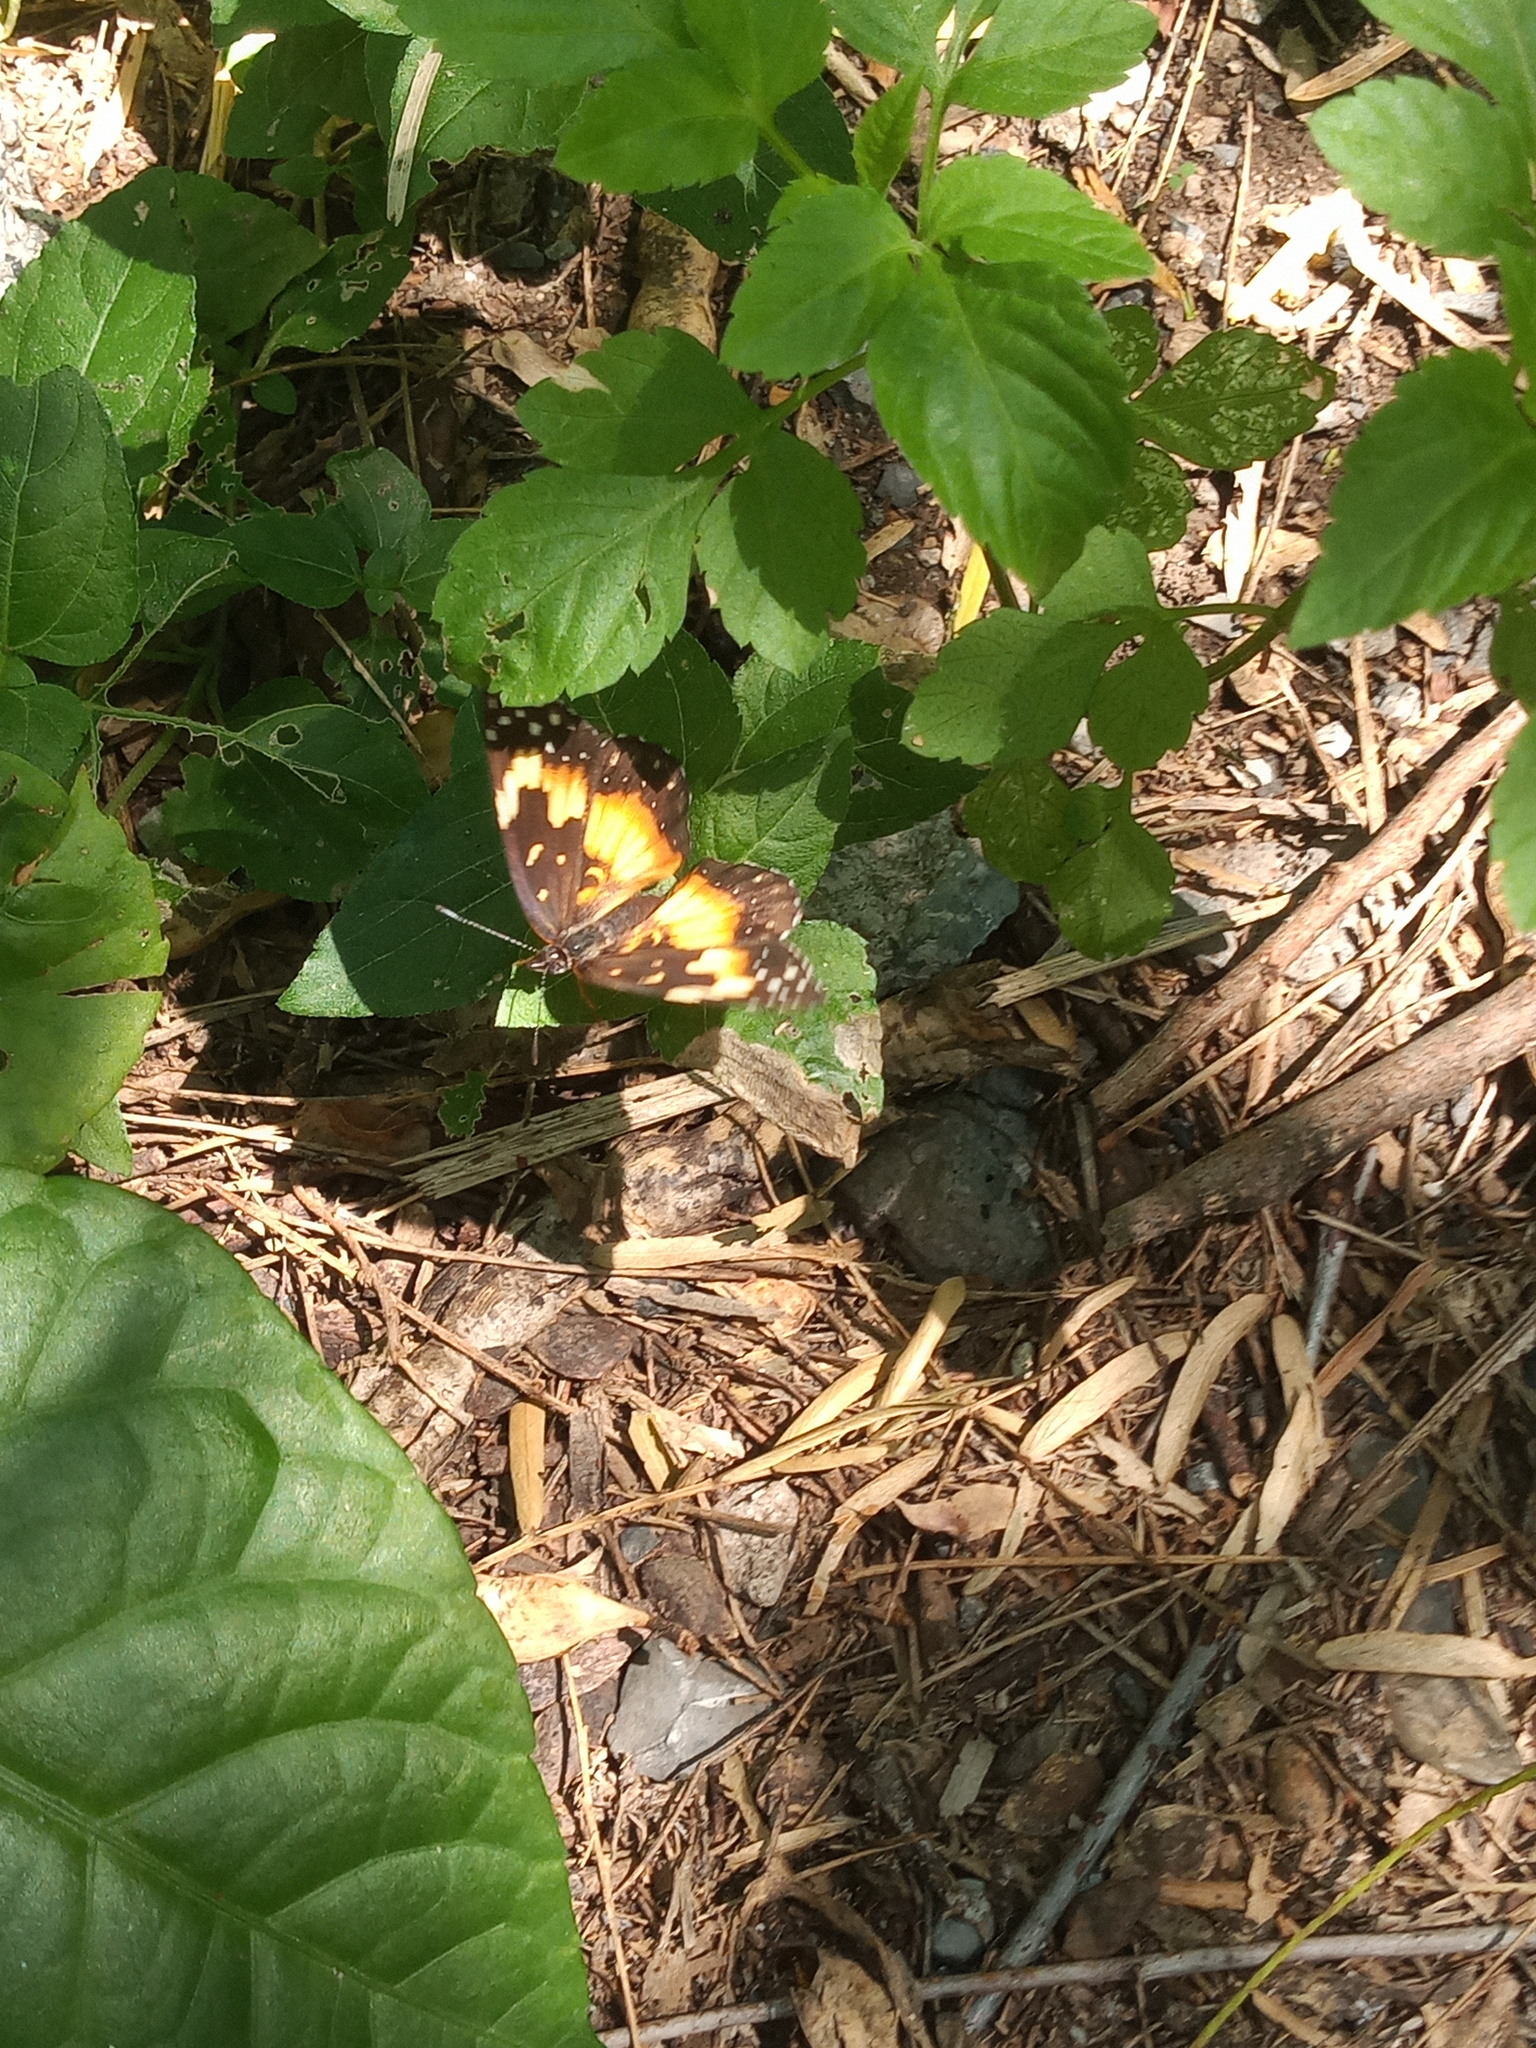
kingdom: Animalia
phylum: Arthropoda
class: Insecta
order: Lepidoptera
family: Nymphalidae
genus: Chlosyne
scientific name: Chlosyne lacinia
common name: Bordered patch
